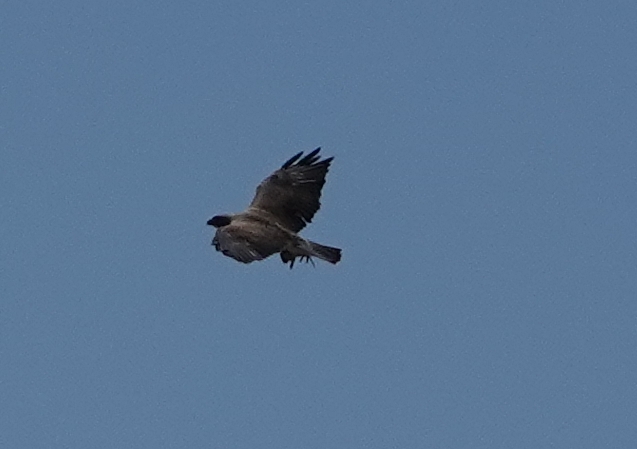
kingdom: Animalia
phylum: Chordata
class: Aves
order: Accipitriformes
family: Accipitridae
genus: Buteo
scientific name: Buteo swainsoni
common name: Swainson's hawk
